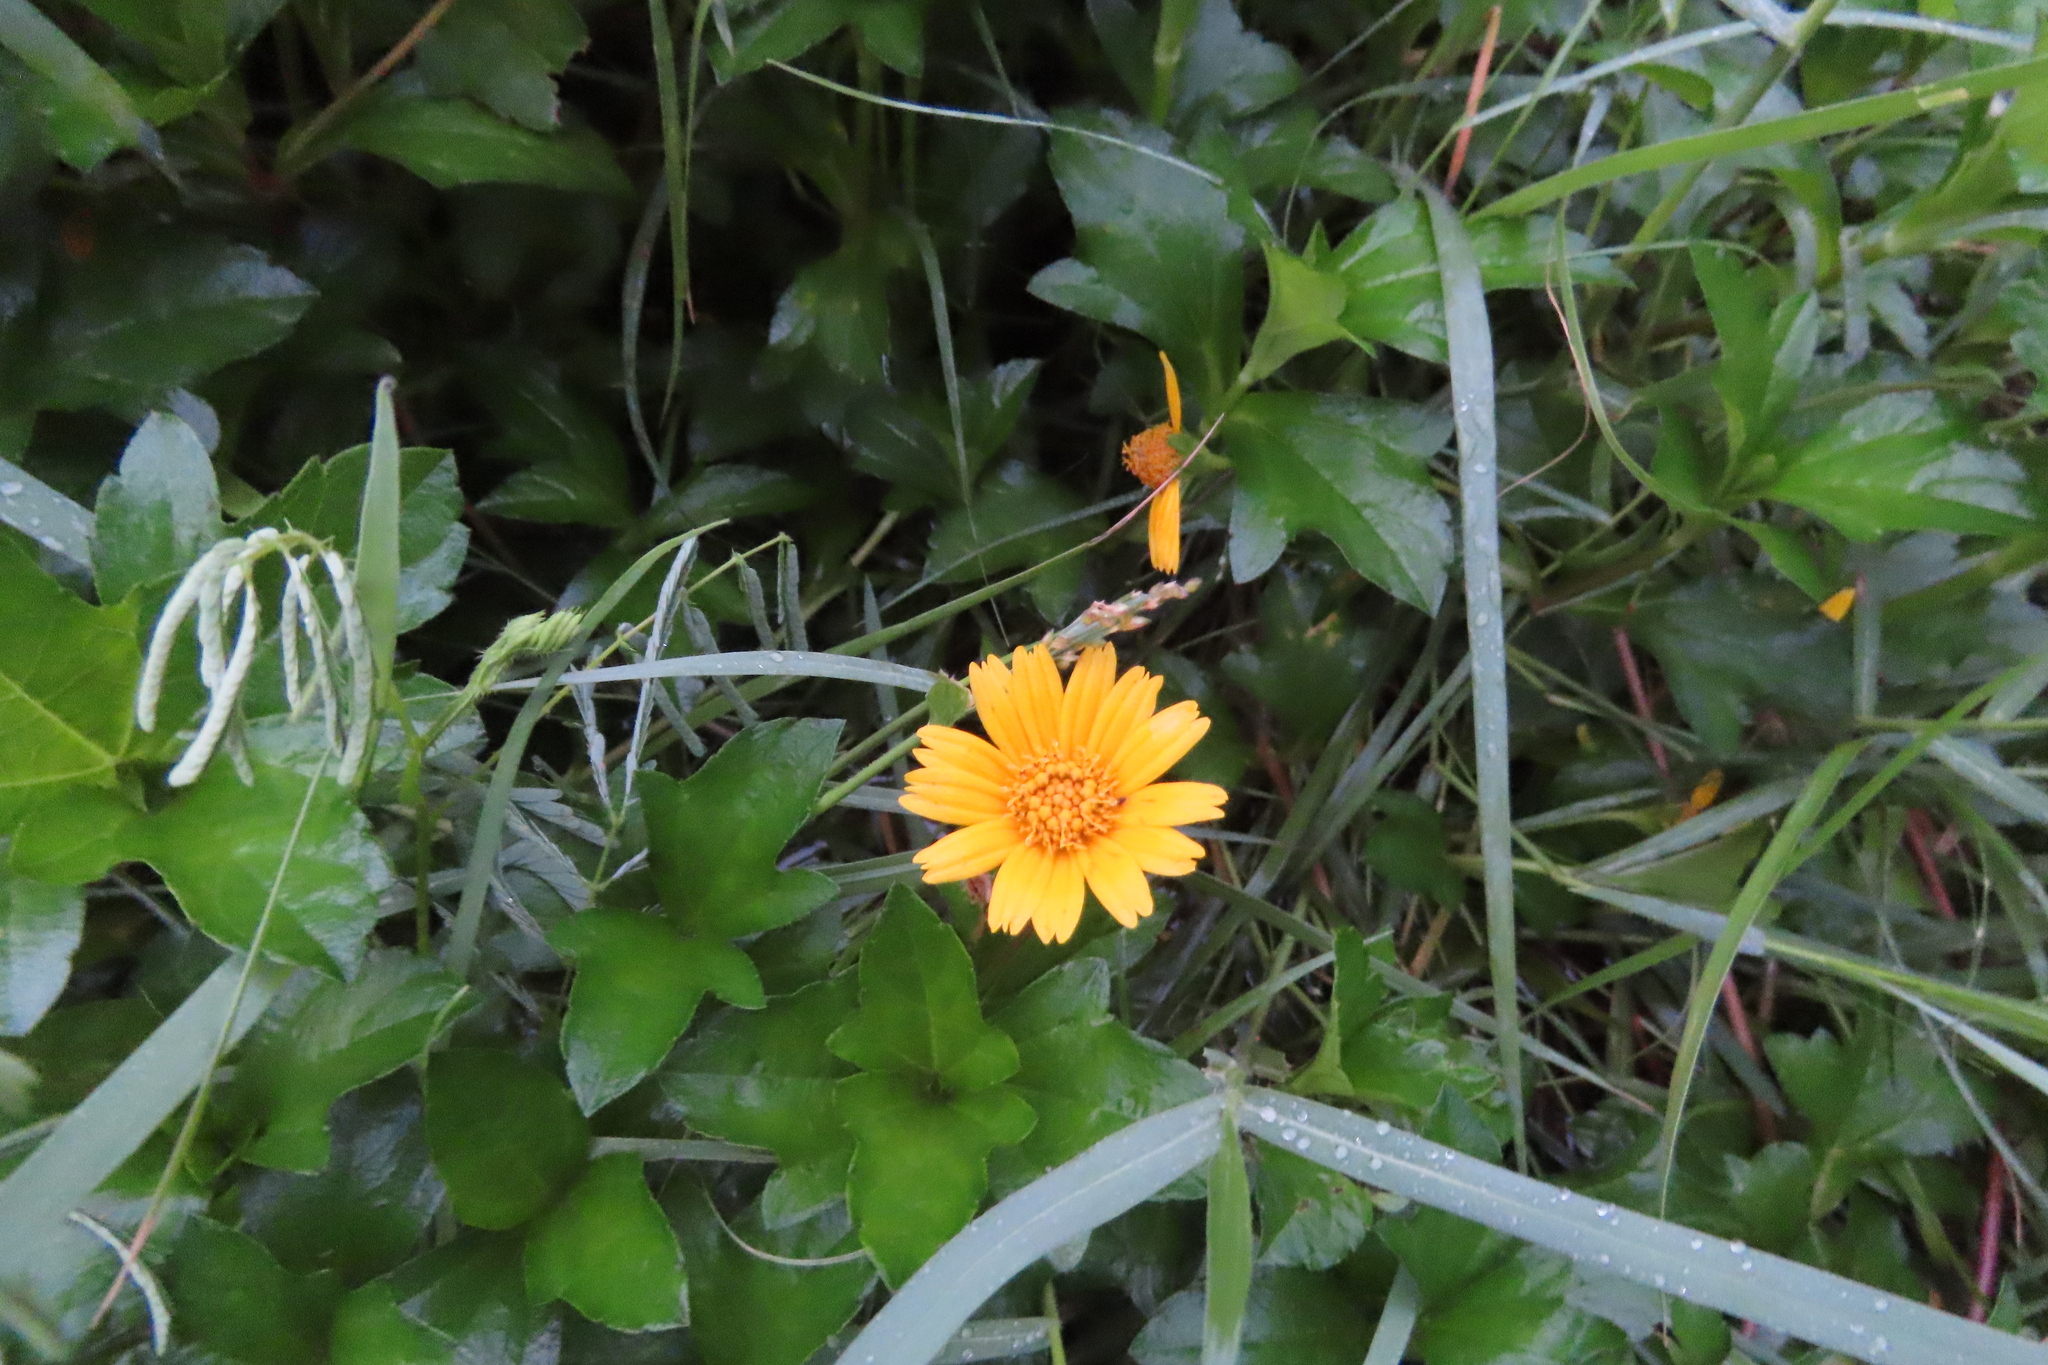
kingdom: Plantae
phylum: Tracheophyta
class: Magnoliopsida
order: Asterales
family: Asteraceae
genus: Sphagneticola
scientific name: Sphagneticola trilobata
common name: Bay biscayne creeping-oxeye
